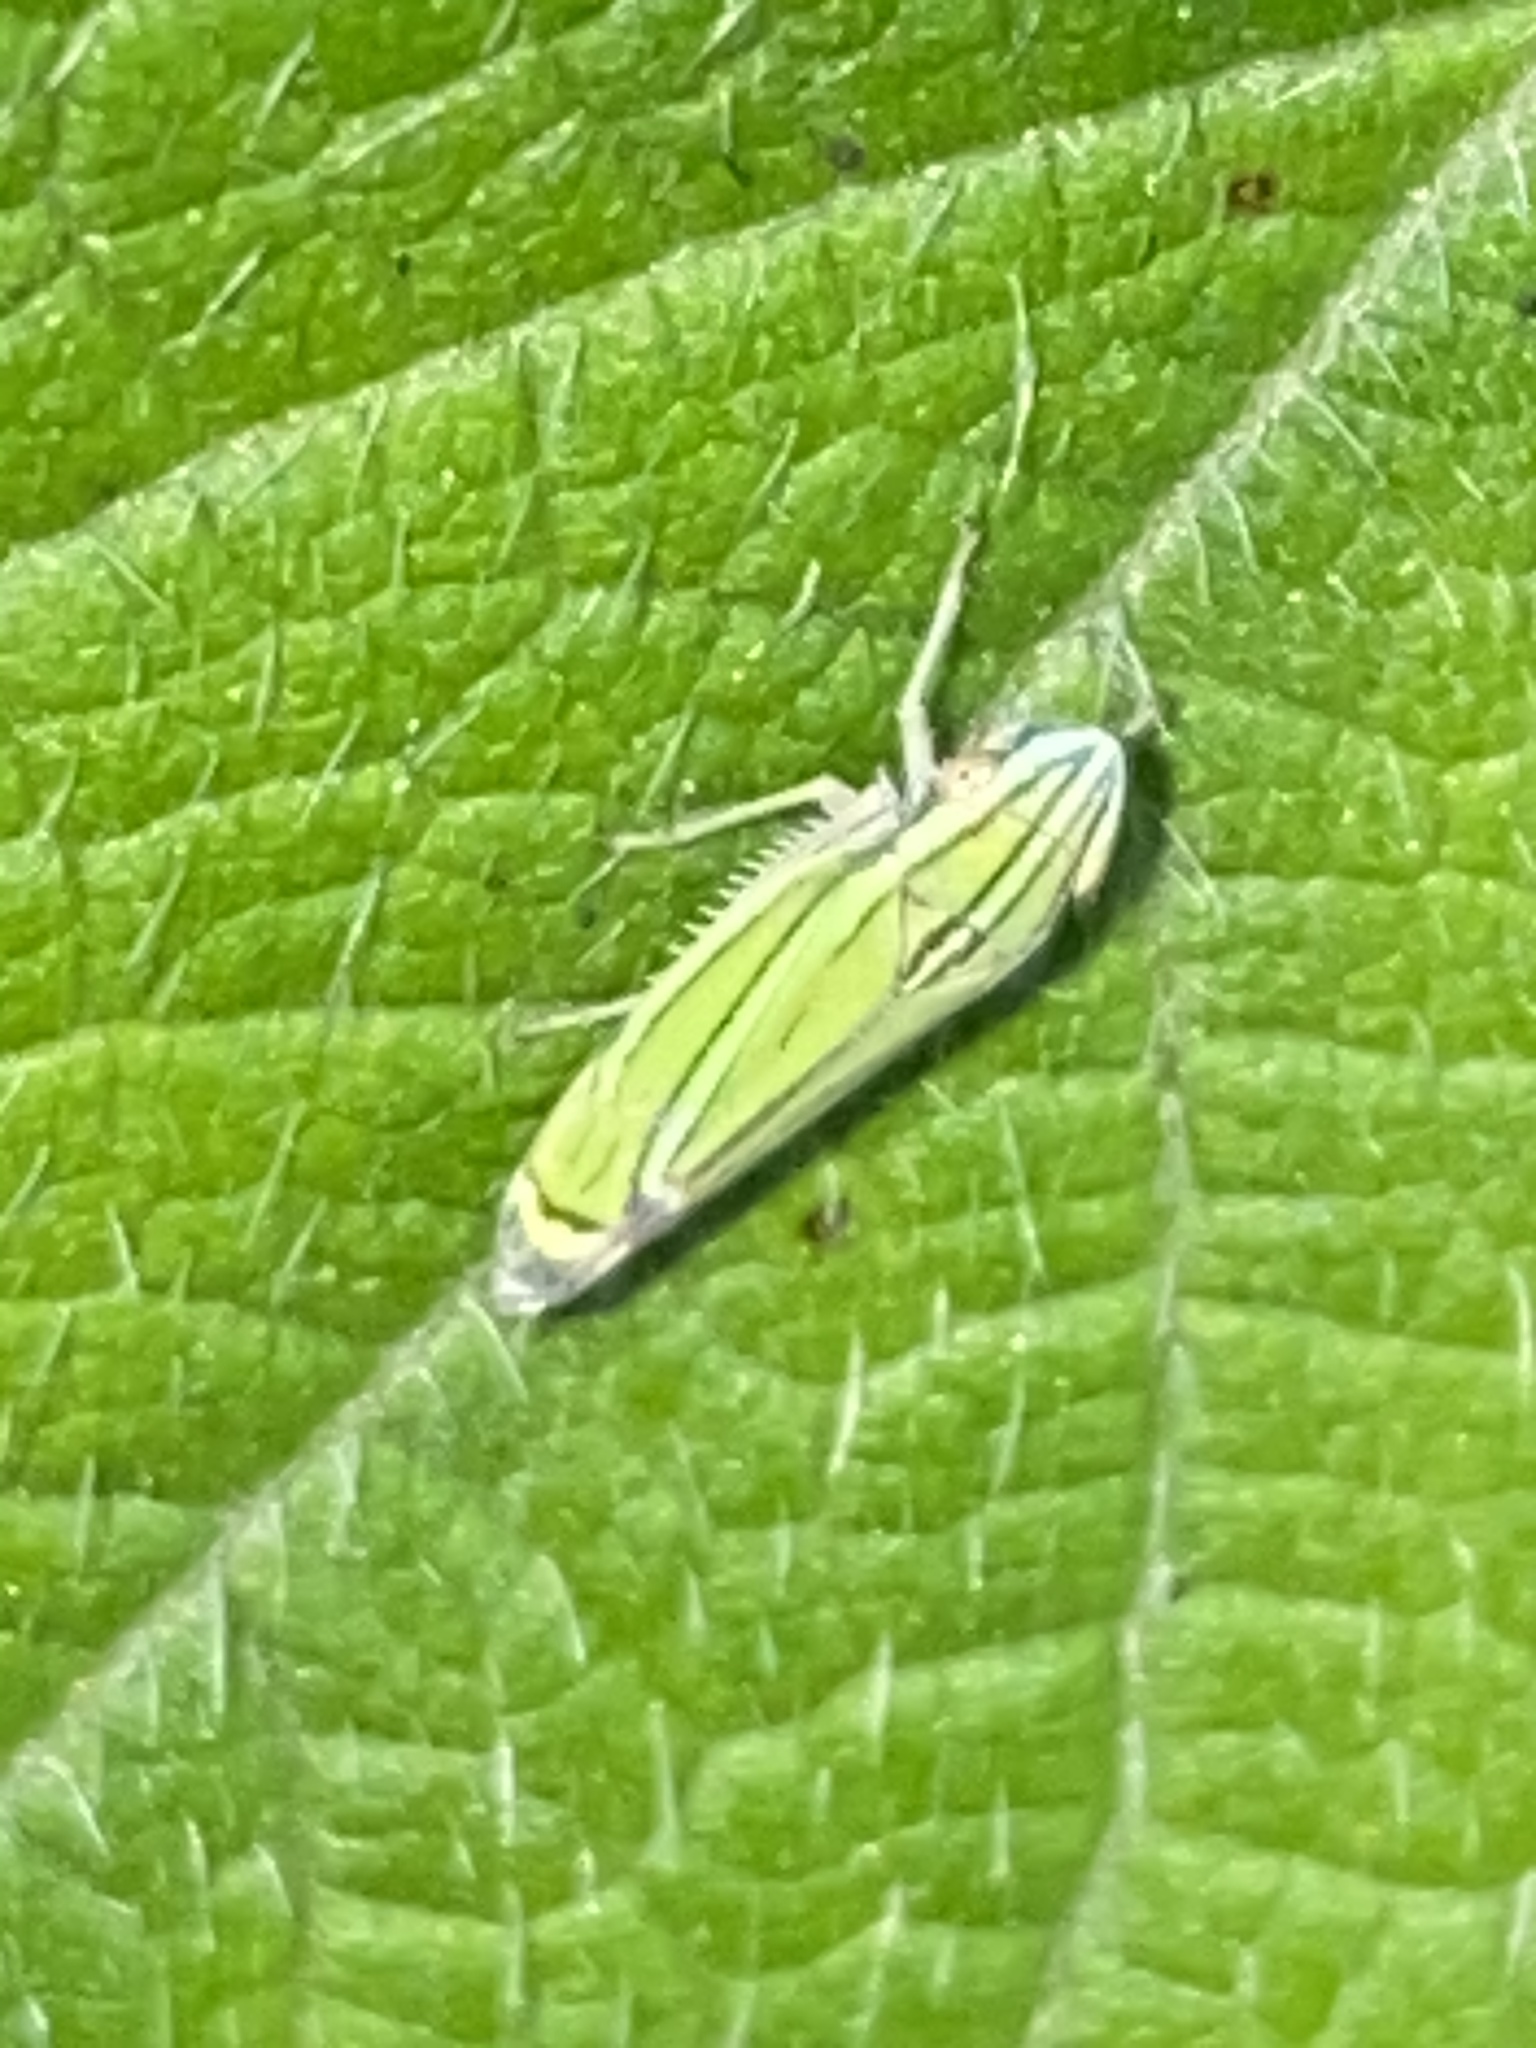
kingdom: Animalia
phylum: Arthropoda
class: Insecta
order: Hemiptera
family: Cicadellidae
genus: Isogonalia
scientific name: Isogonalia sexlineata
